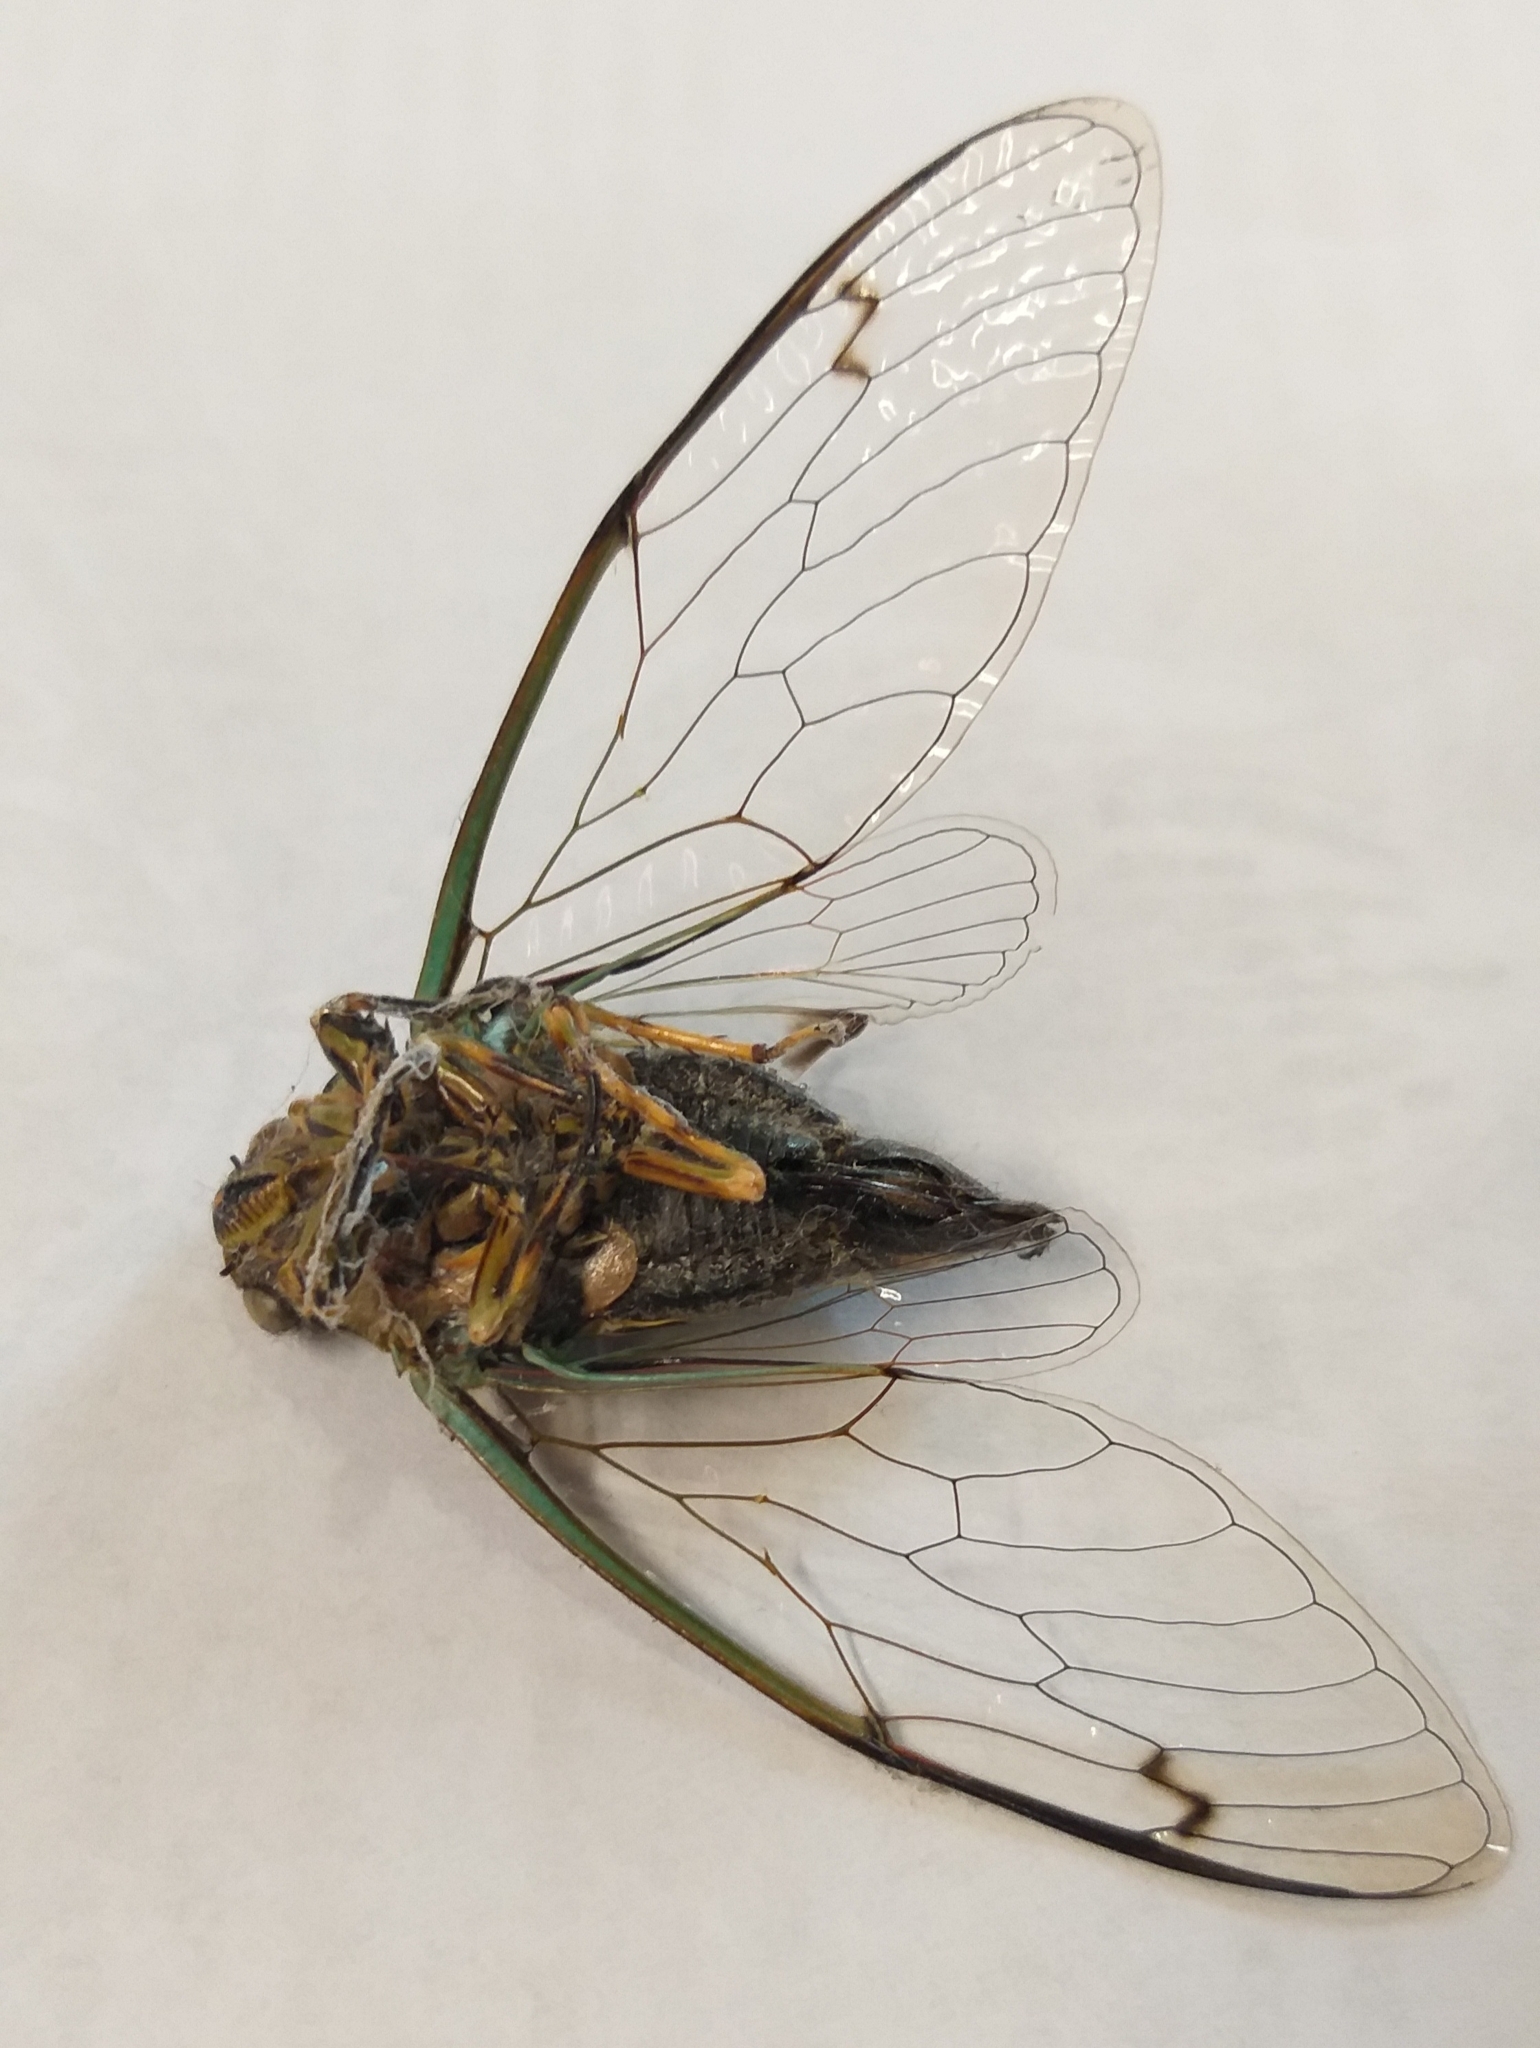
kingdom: Animalia
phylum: Arthropoda
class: Insecta
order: Hemiptera
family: Cicadidae
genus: Amphipsalta
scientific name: Amphipsalta zelandica
